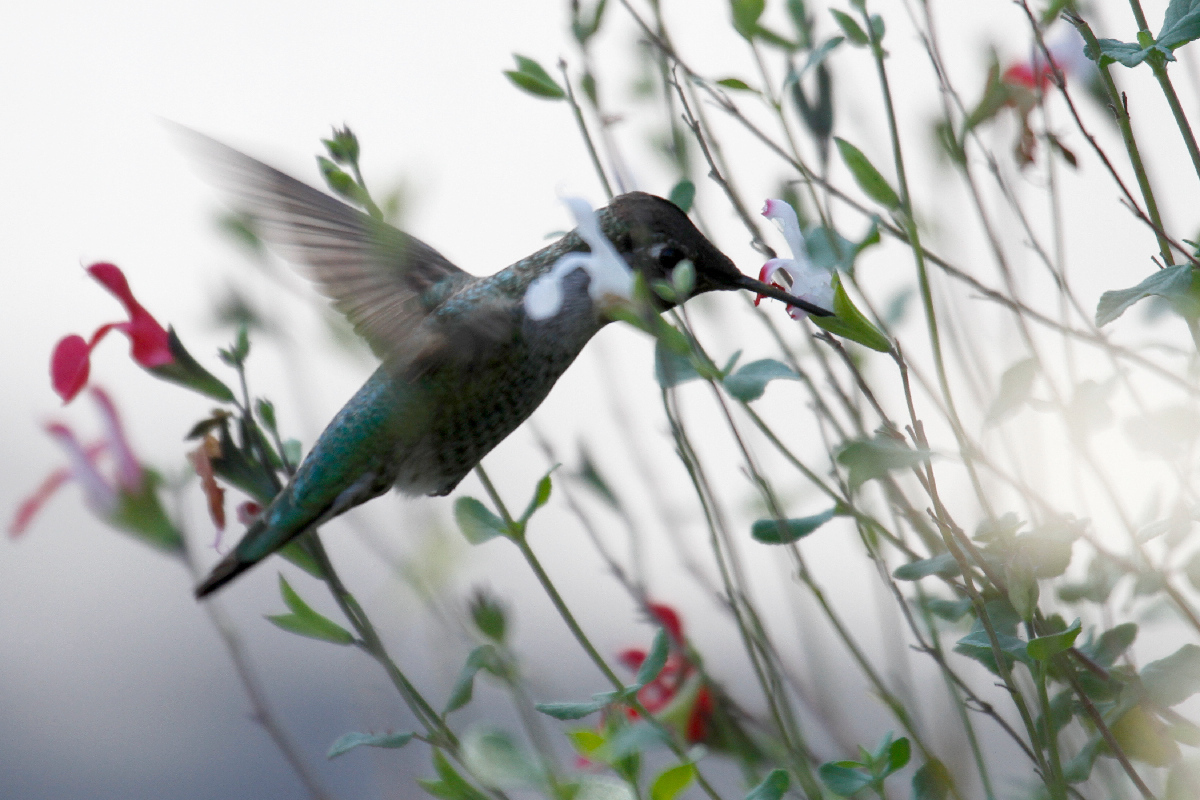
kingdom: Animalia
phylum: Chordata
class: Aves
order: Apodiformes
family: Trochilidae
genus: Calypte
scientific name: Calypte anna
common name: Anna's hummingbird
